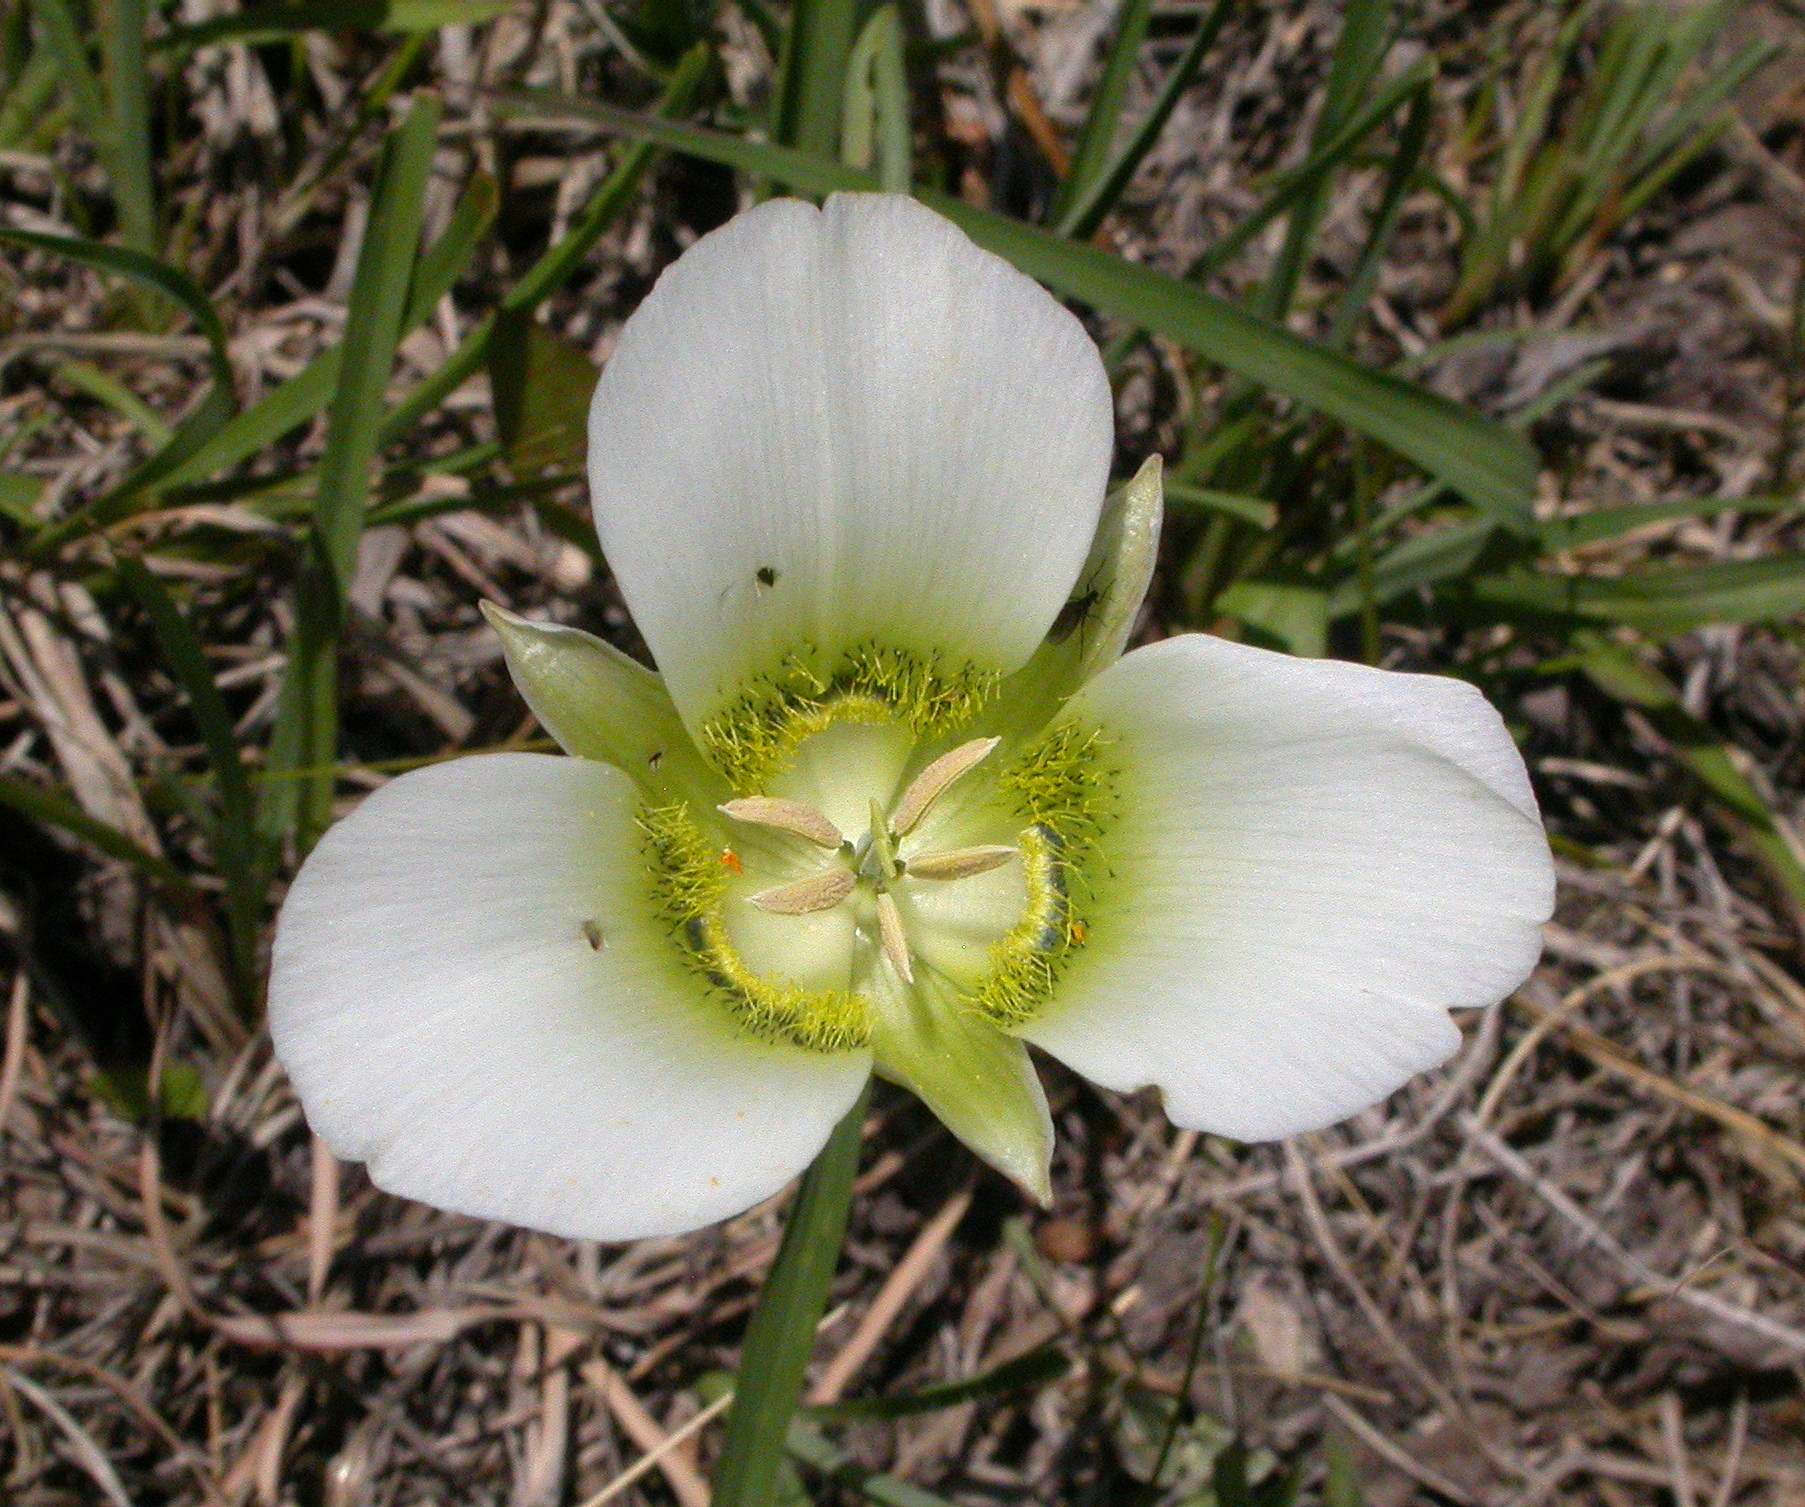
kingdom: Plantae
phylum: Tracheophyta
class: Liliopsida
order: Liliales
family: Liliaceae
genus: Calochortus
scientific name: Calochortus gunnisonii
